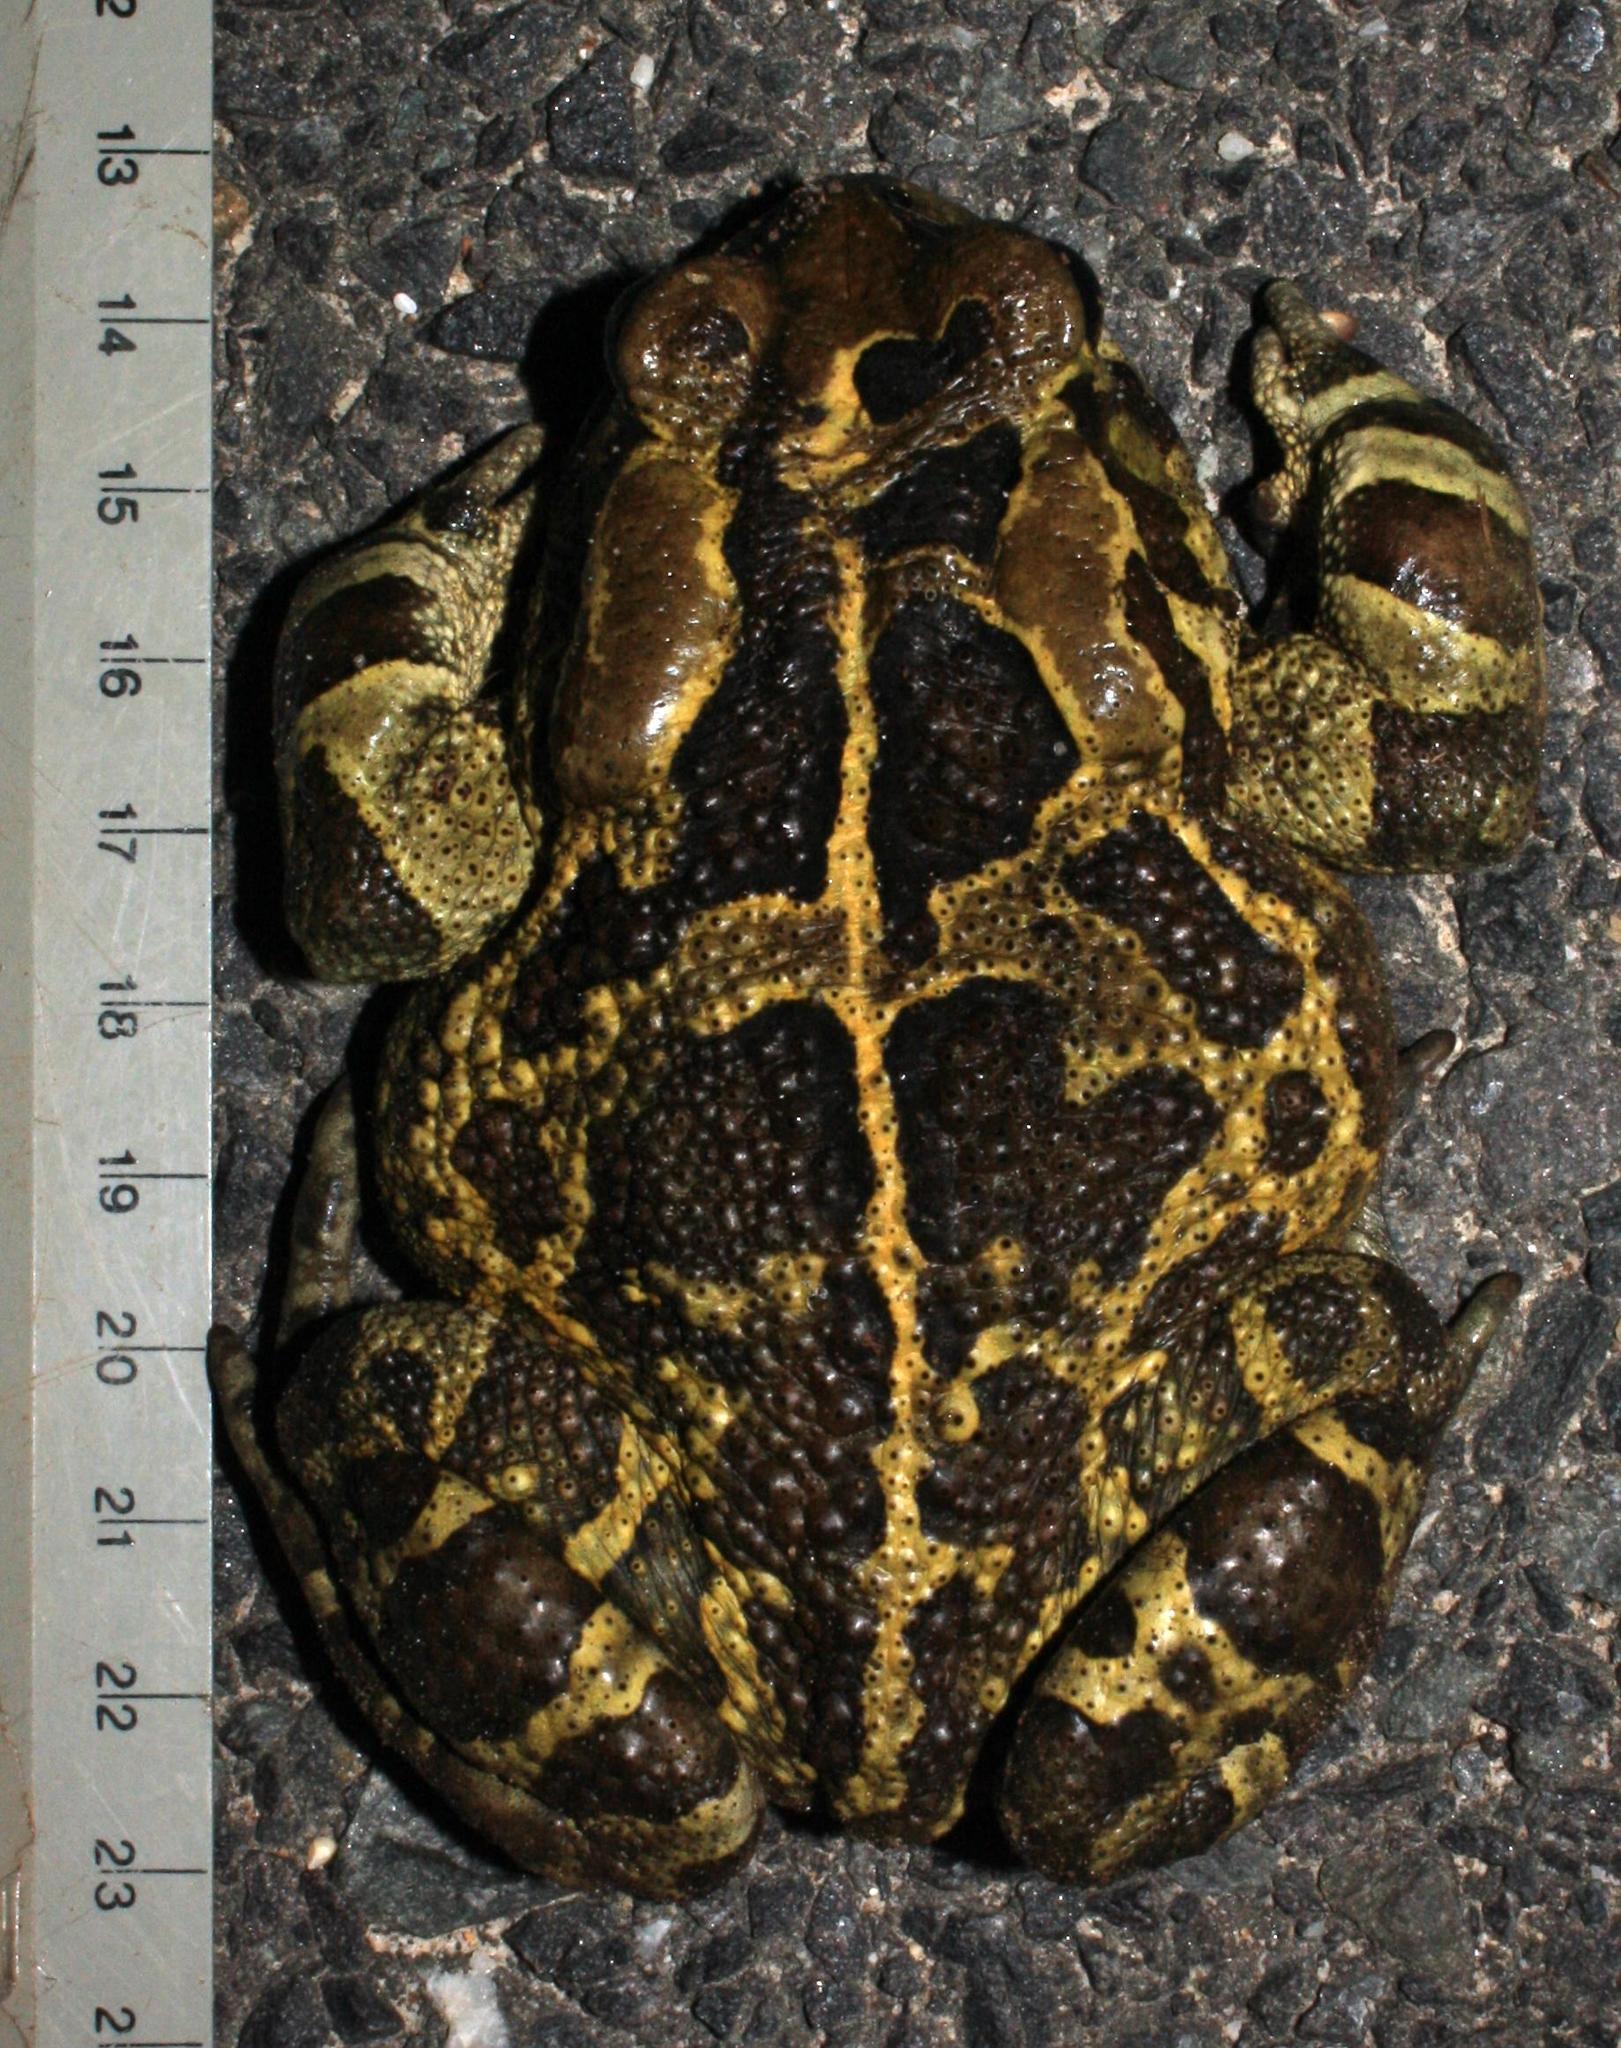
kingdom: Animalia
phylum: Chordata
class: Amphibia
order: Anura
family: Bufonidae
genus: Sclerophrys
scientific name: Sclerophrys pantherina
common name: Panther toad
